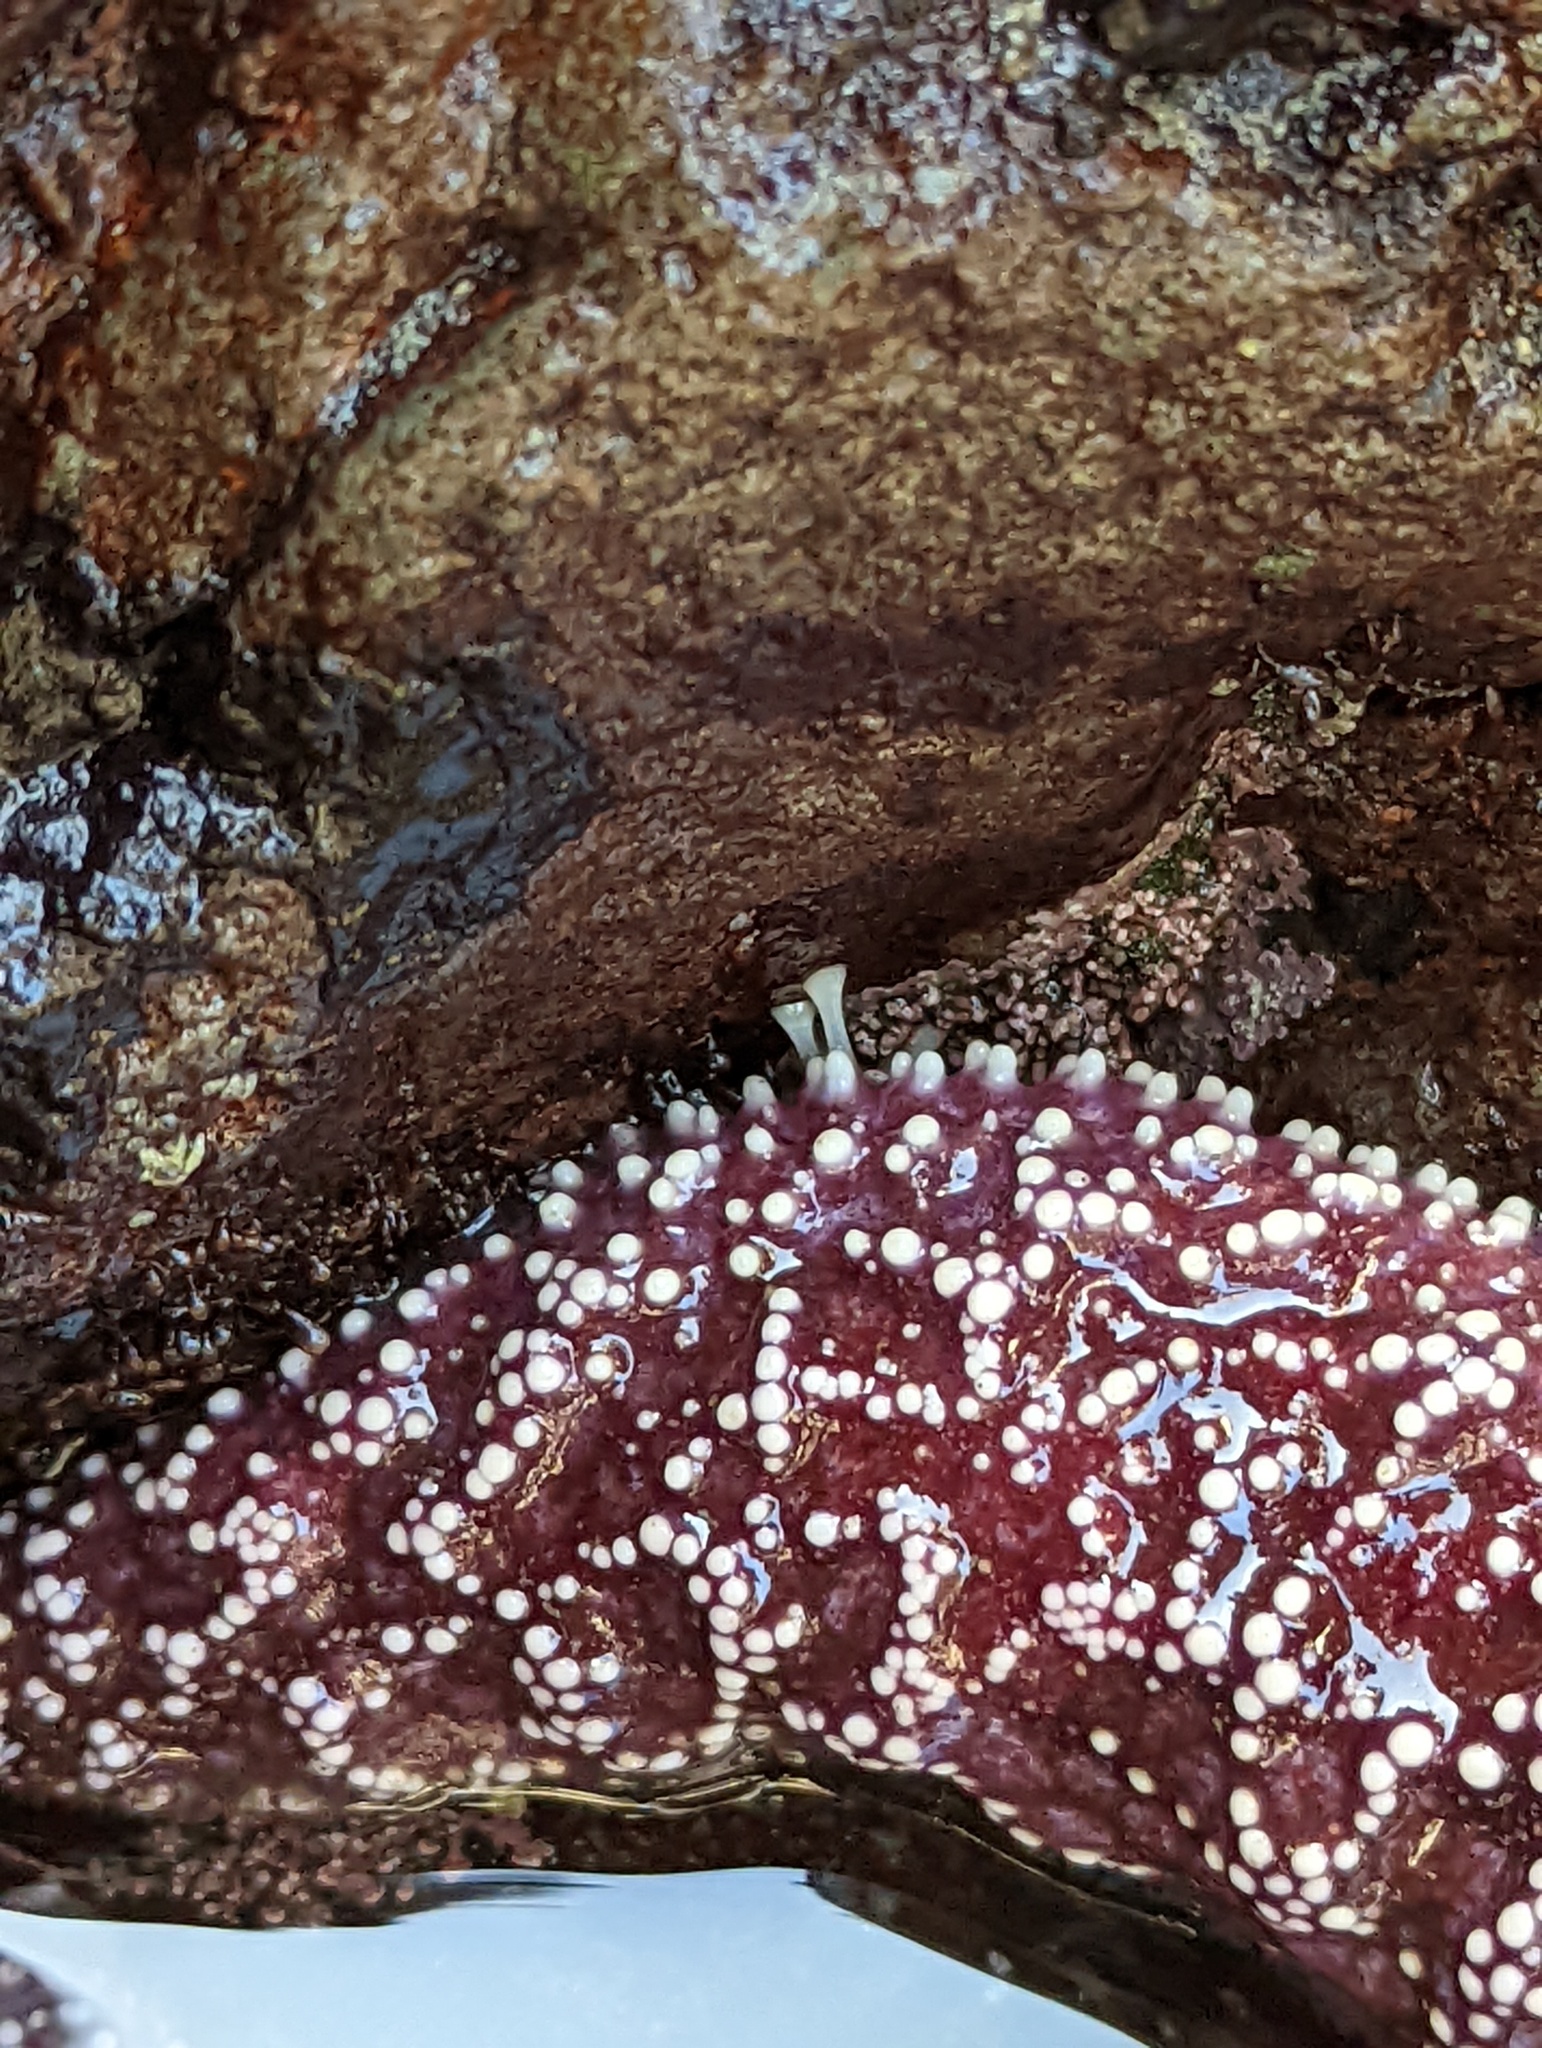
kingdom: Animalia
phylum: Echinodermata
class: Asteroidea
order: Forcipulatida
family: Asteriidae
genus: Pisaster
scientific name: Pisaster ochraceus
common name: Ochre stars
